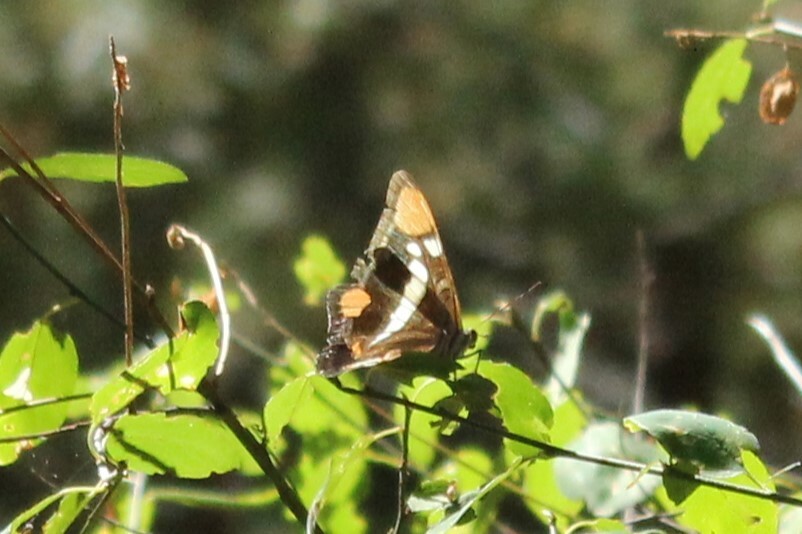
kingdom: Animalia
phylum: Arthropoda
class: Insecta
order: Lepidoptera
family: Nymphalidae
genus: Limenitis
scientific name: Limenitis bredowii
